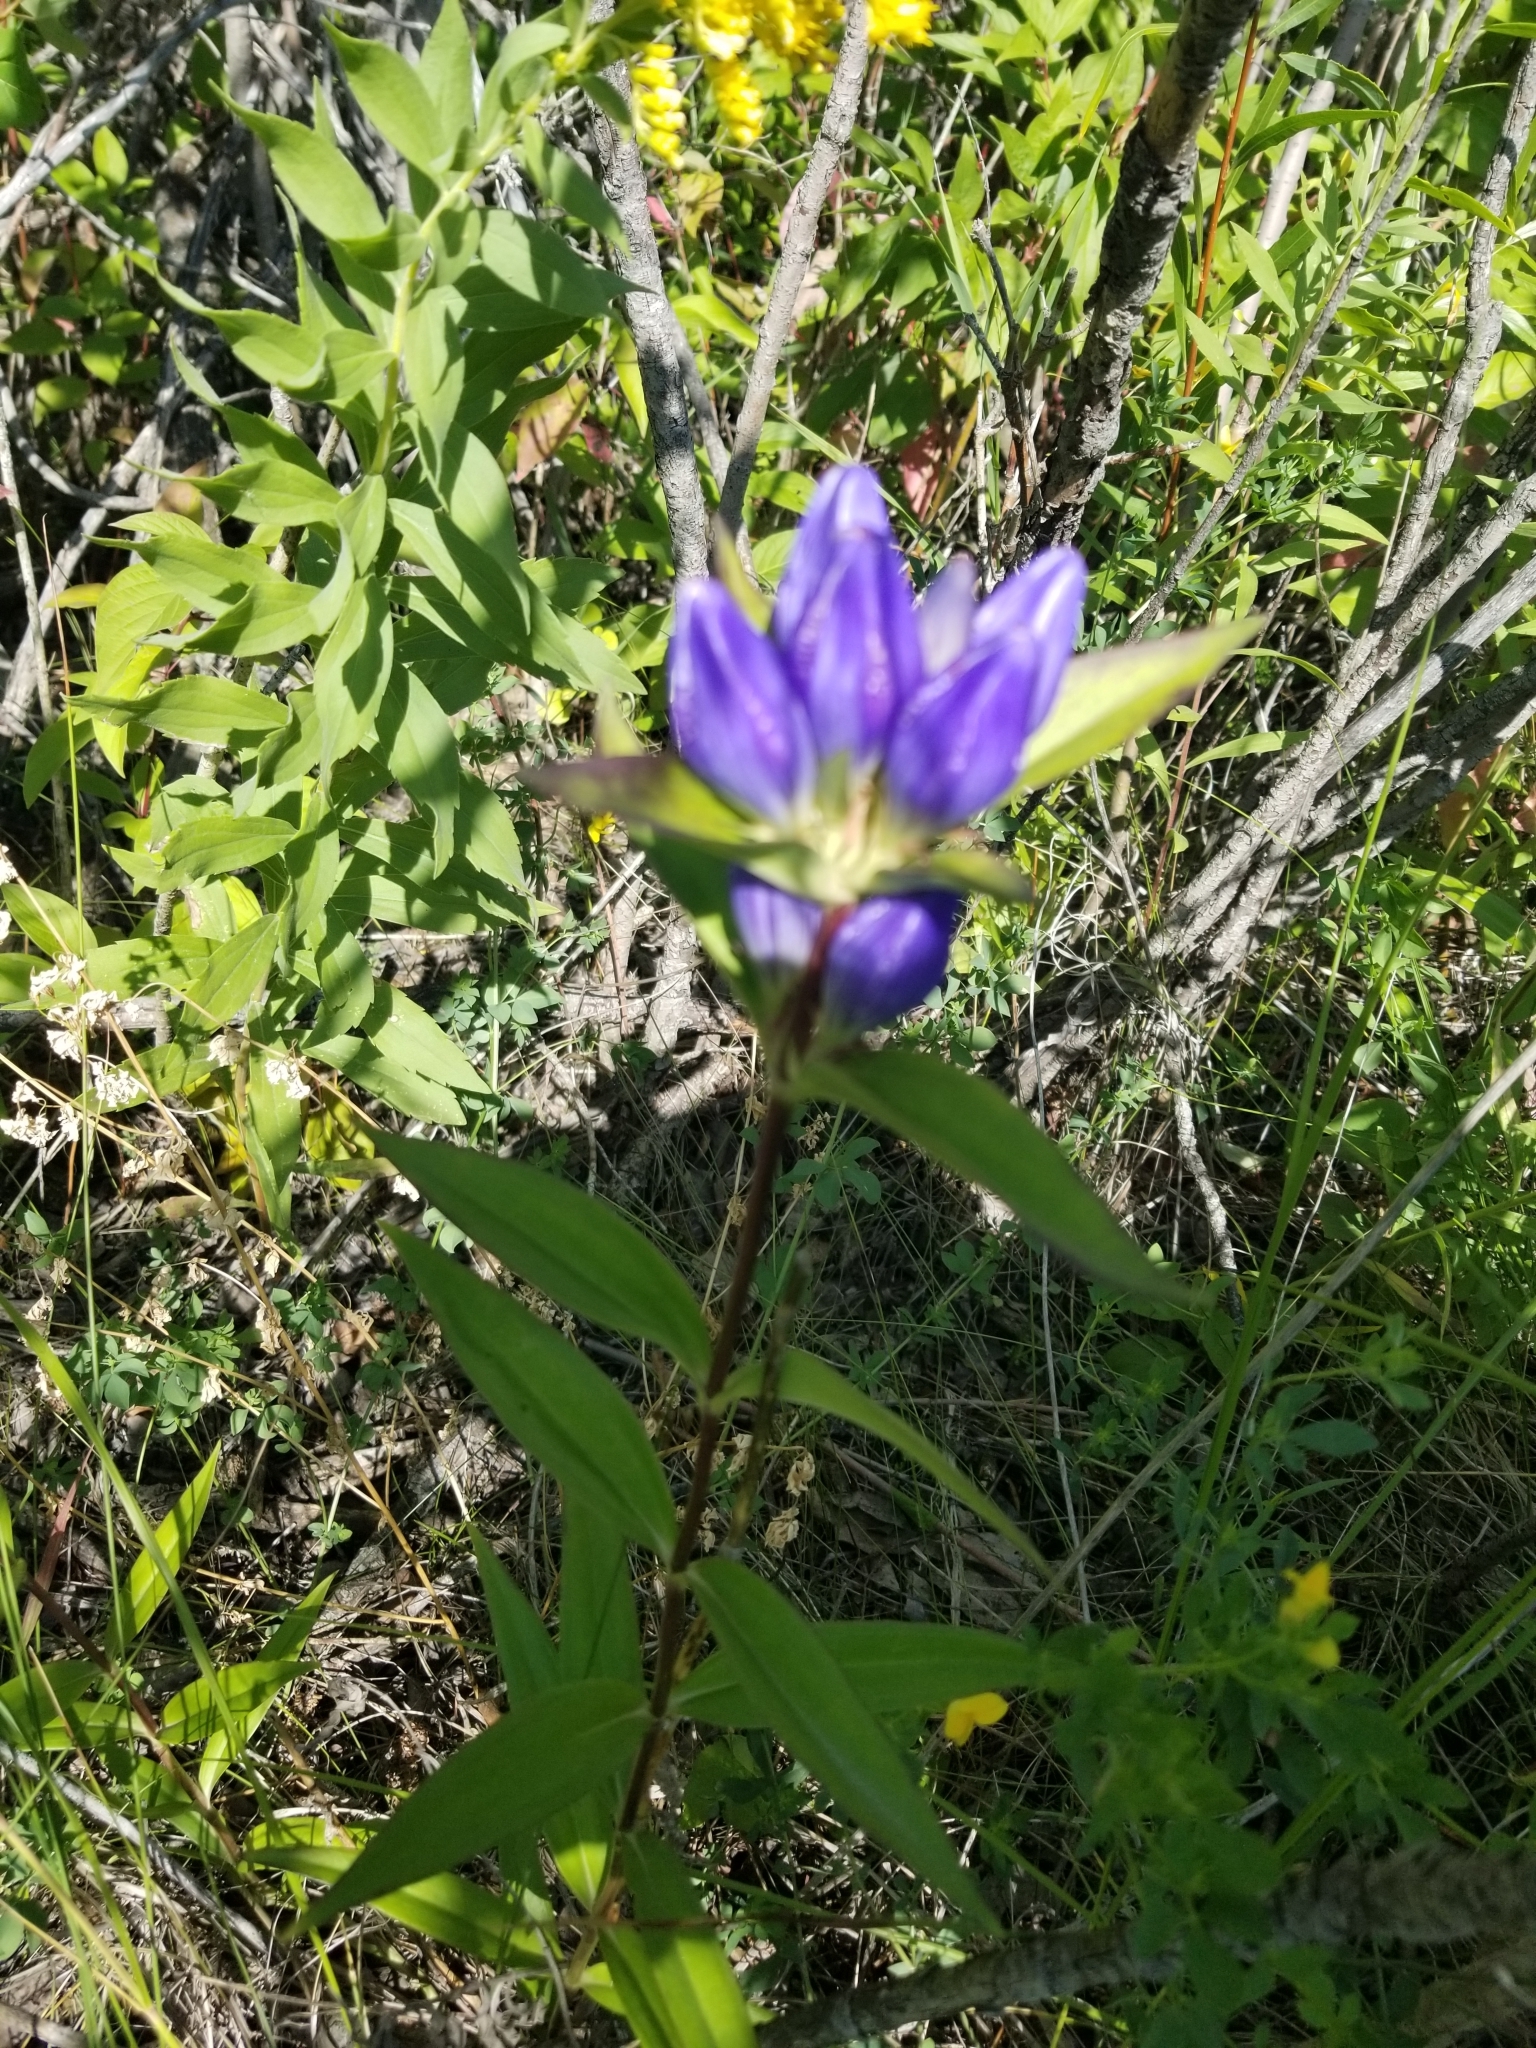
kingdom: Plantae
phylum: Tracheophyta
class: Magnoliopsida
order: Gentianales
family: Gentianaceae
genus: Gentiana
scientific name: Gentiana andrewsii
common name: Bottle gentian
